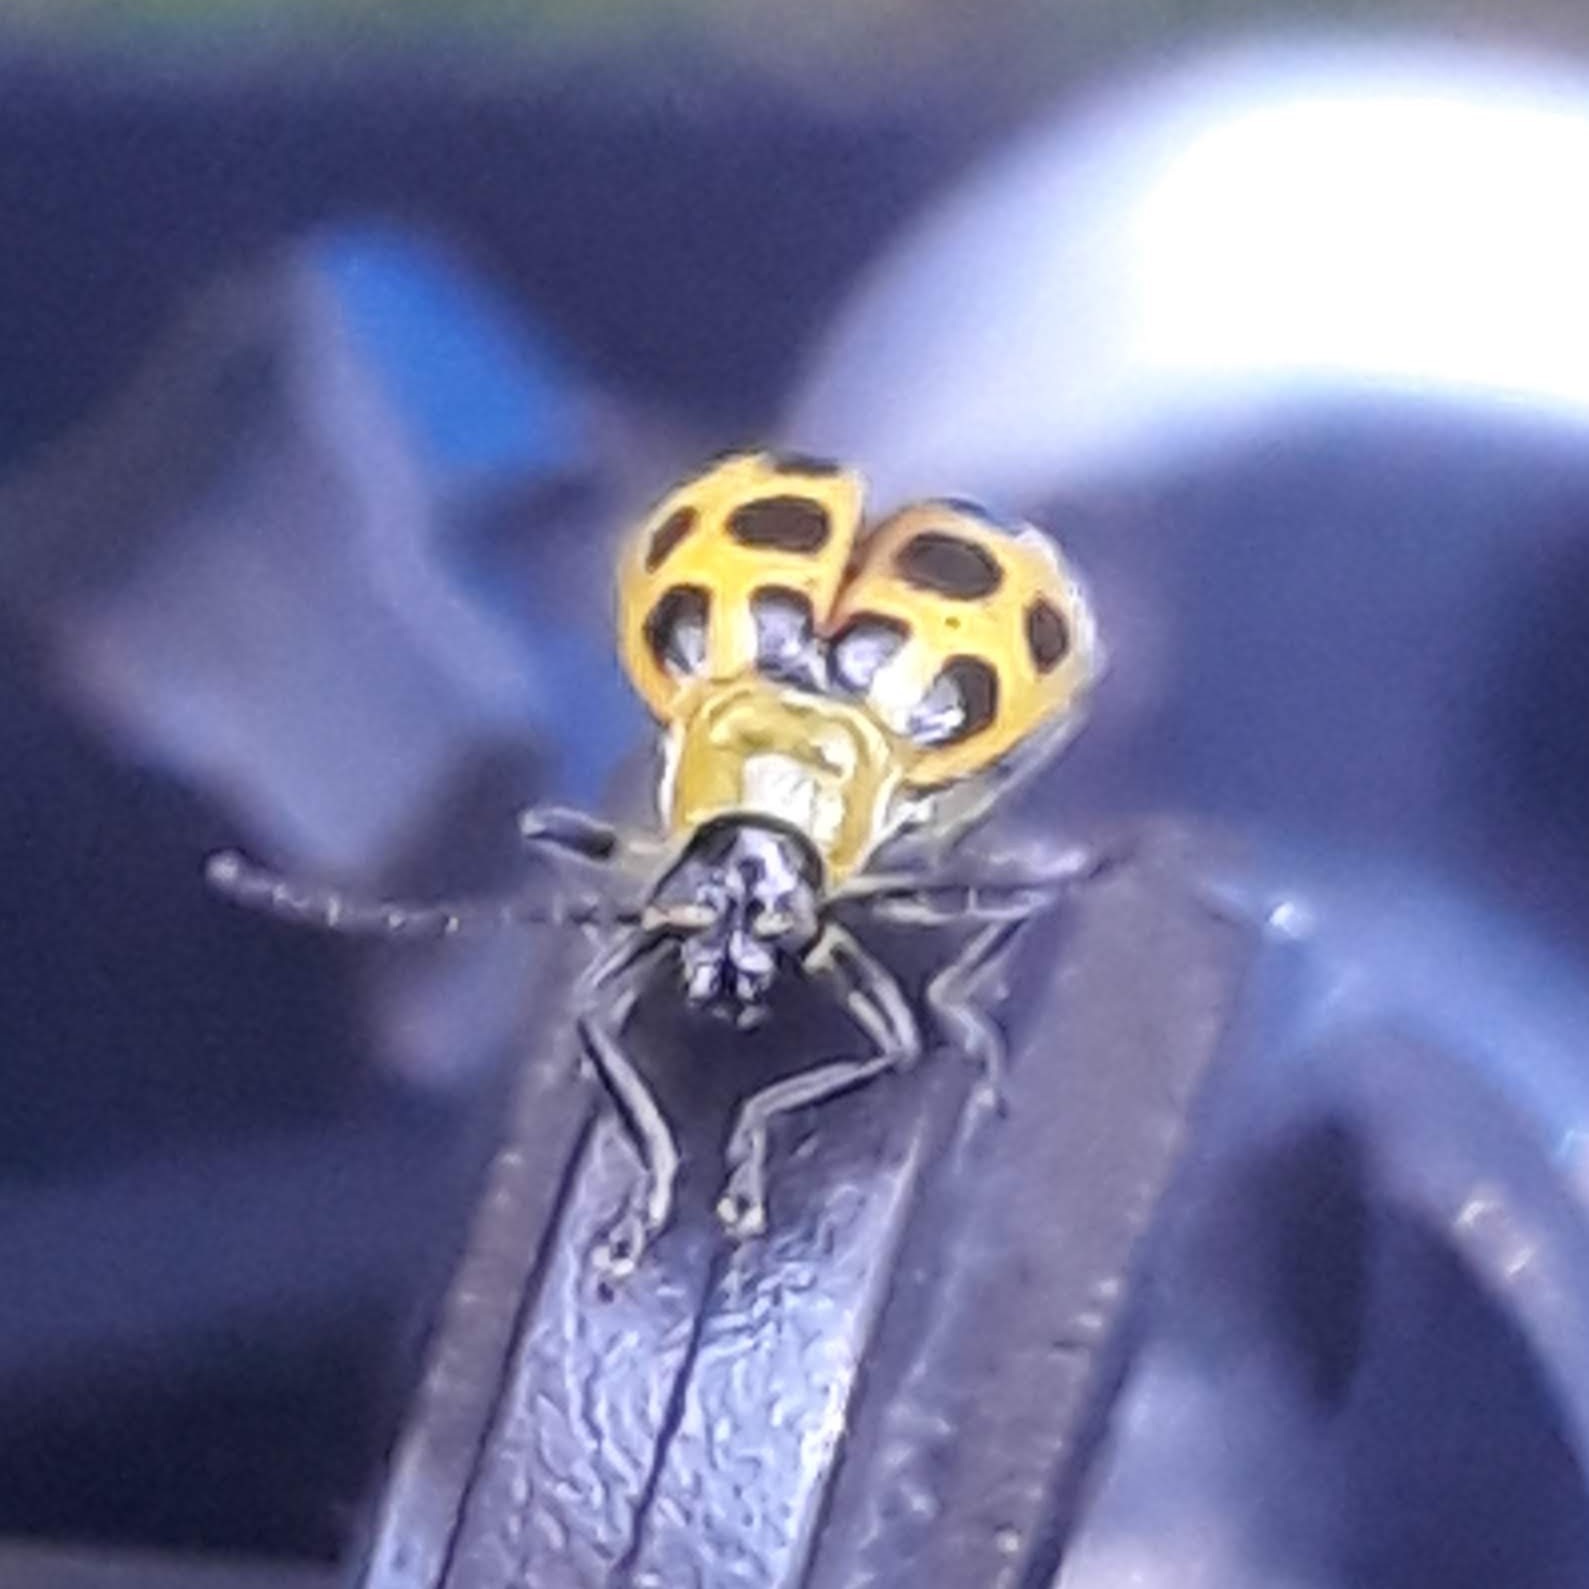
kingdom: Animalia
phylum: Arthropoda
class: Insecta
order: Coleoptera
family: Chrysomelidae
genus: Diabrotica
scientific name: Diabrotica undecimpunctata
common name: Spotted cucumber beetle
